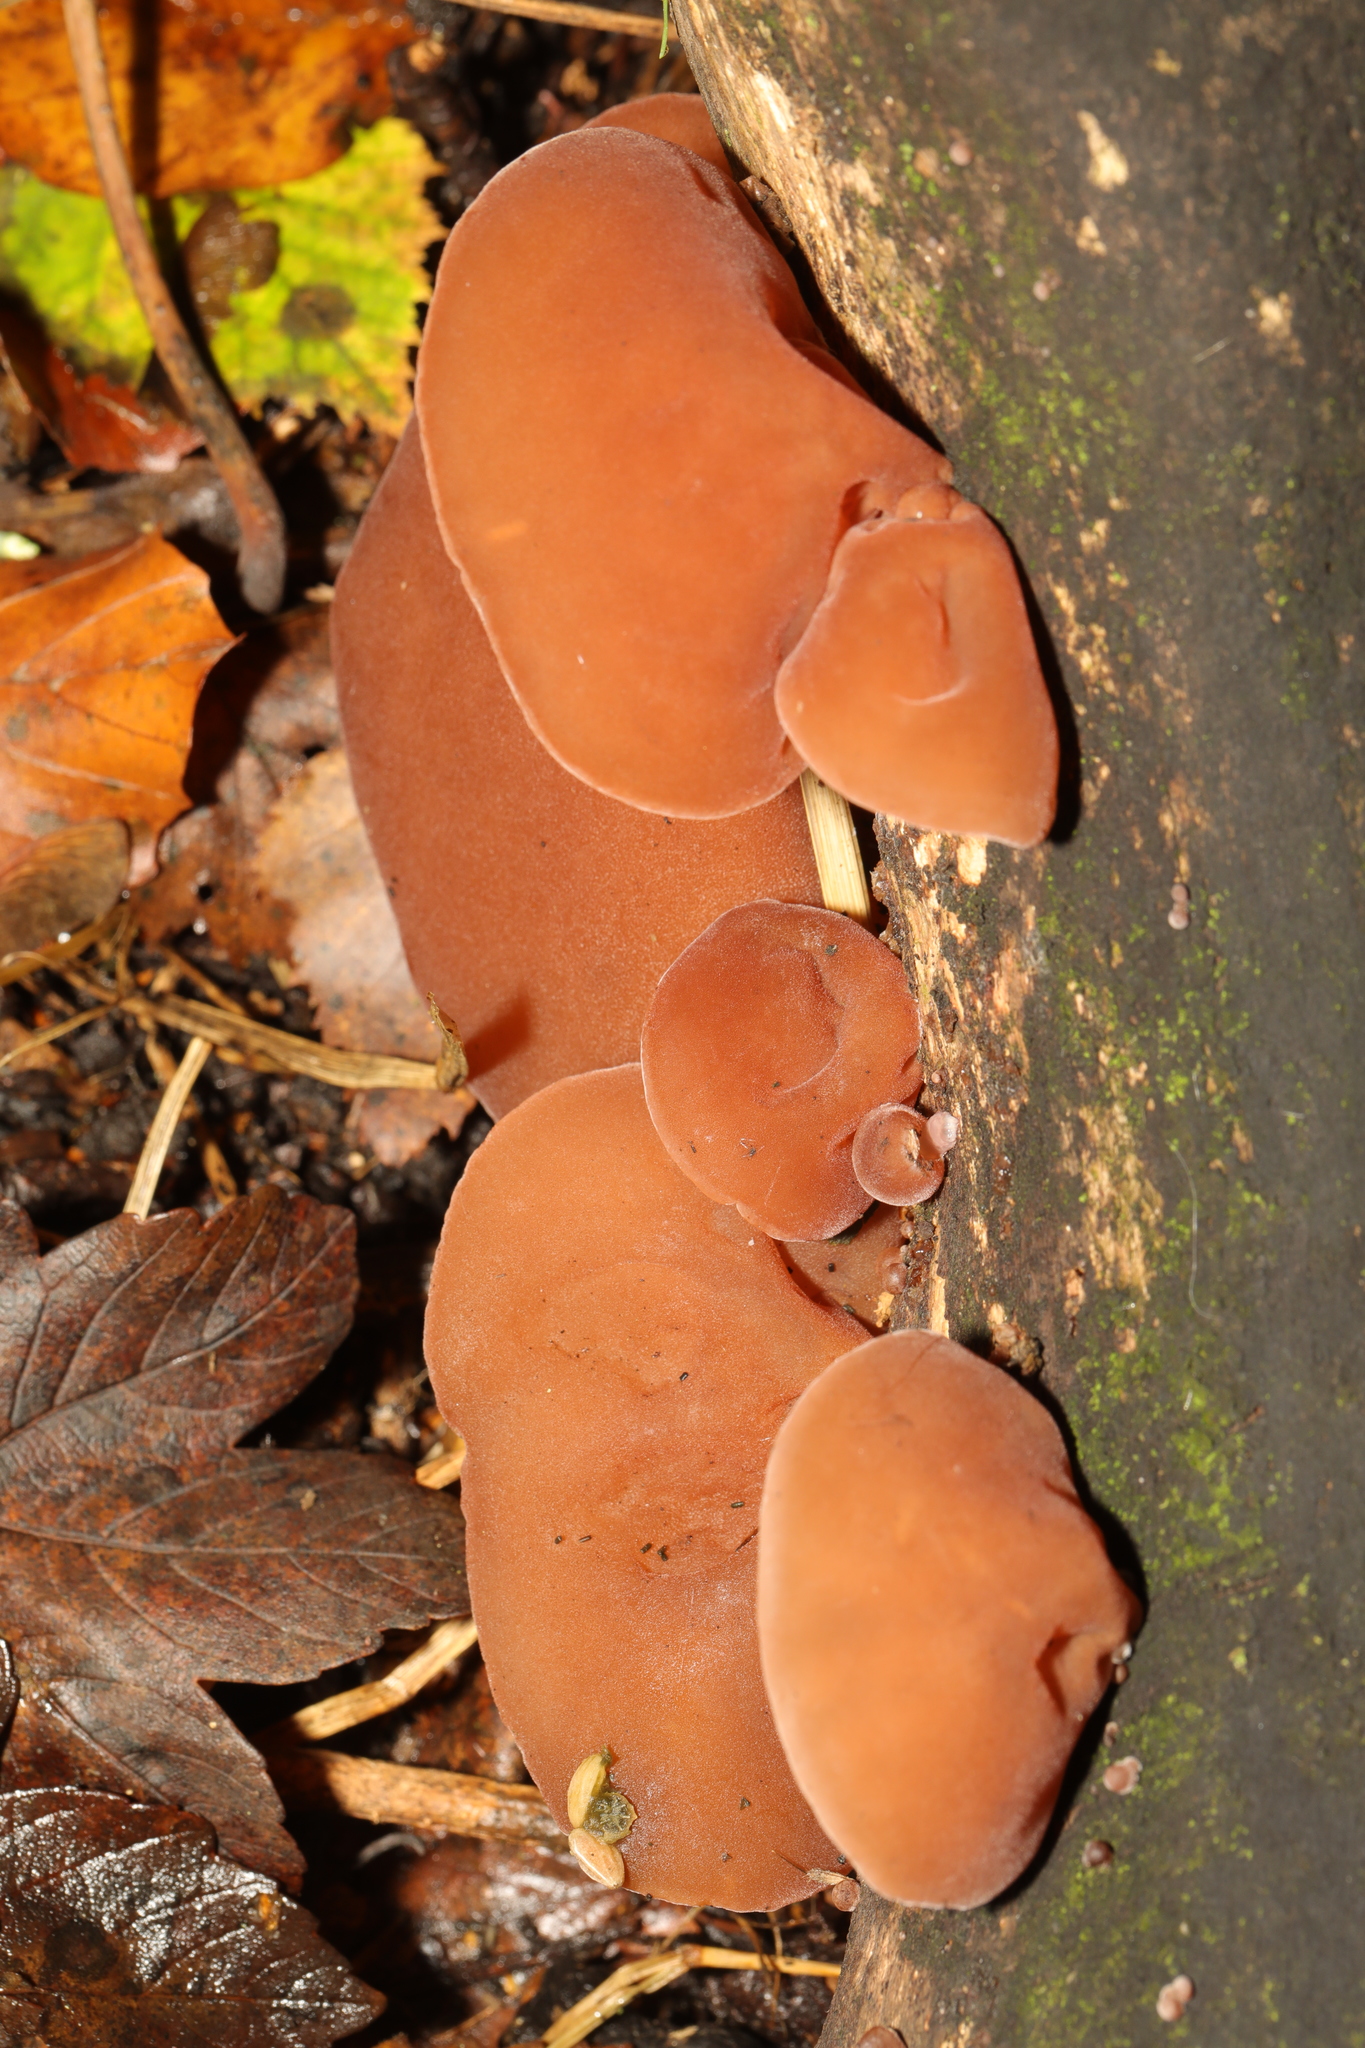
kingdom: Fungi
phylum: Basidiomycota
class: Agaricomycetes
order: Auriculariales
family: Auriculariaceae
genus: Auricularia
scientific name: Auricularia auricula-judae
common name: Jelly ear
